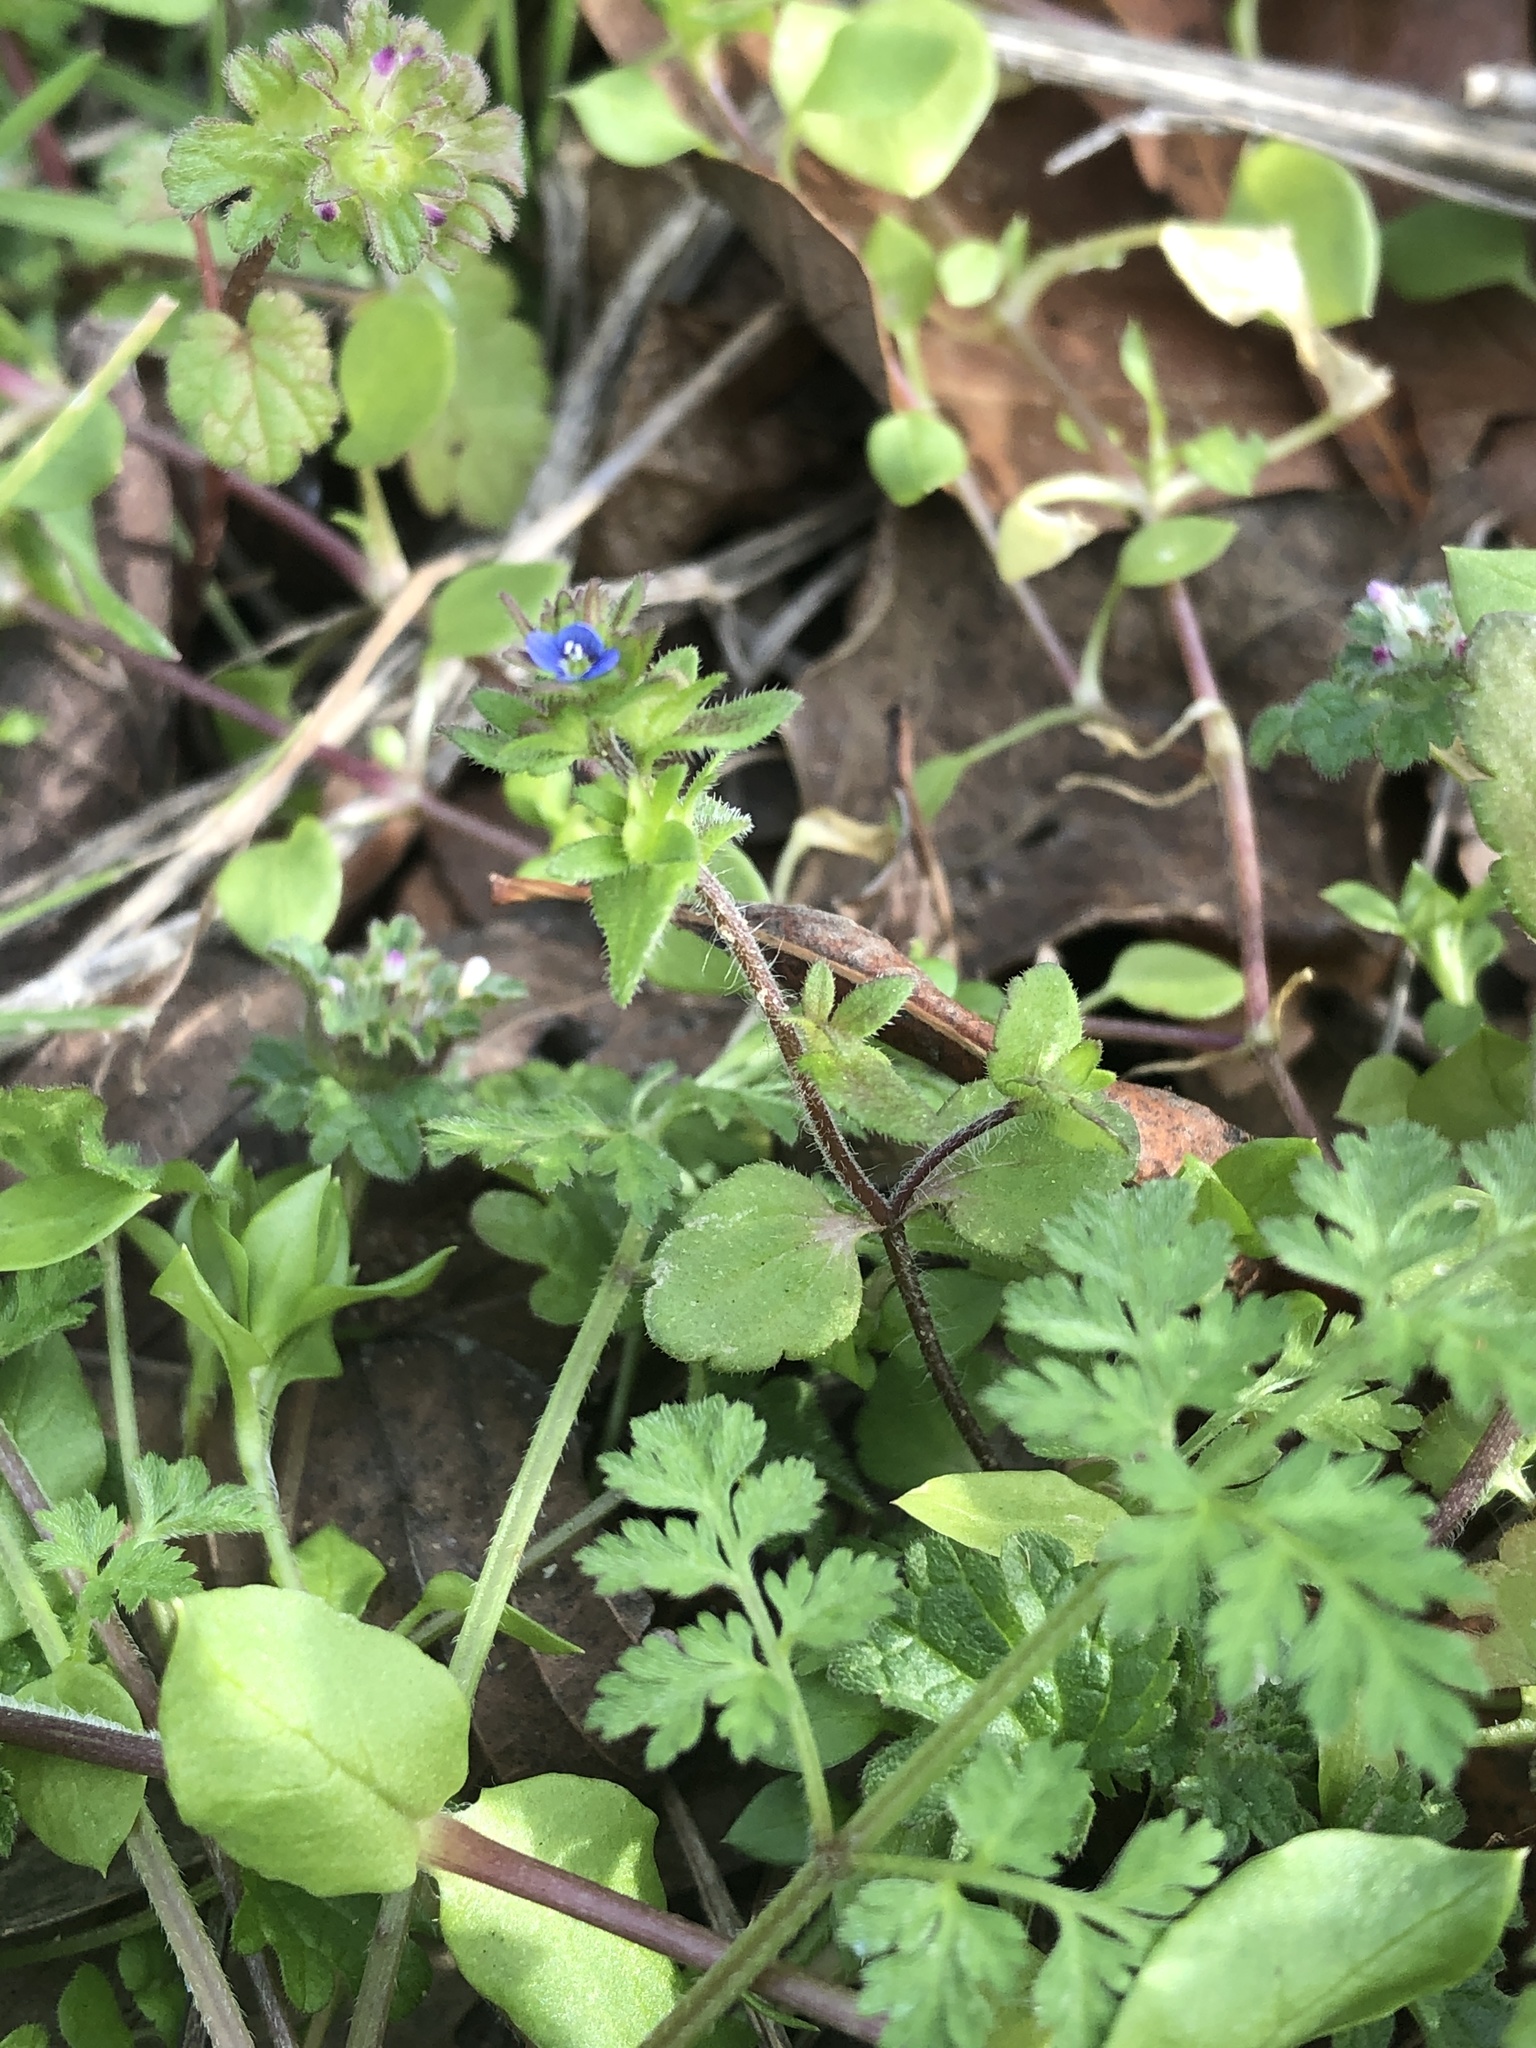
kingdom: Plantae
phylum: Tracheophyta
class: Magnoliopsida
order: Lamiales
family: Plantaginaceae
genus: Veronica
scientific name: Veronica arvensis
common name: Corn speedwell
